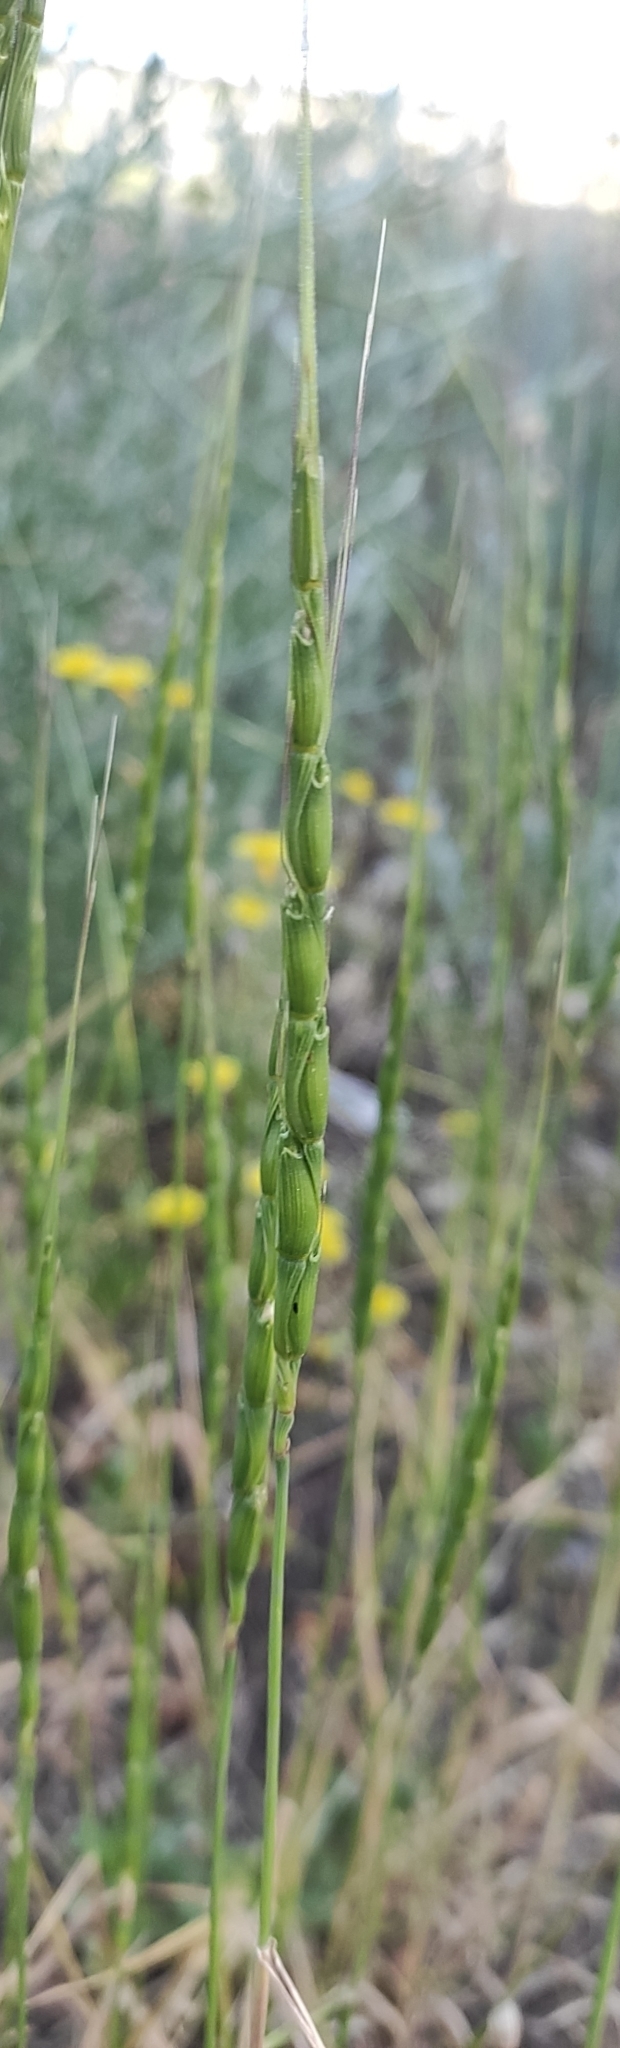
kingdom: Plantae
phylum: Tracheophyta
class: Liliopsida
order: Poales
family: Poaceae
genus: Aegilops
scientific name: Aegilops cylindrica
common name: Jointed goatgrass
